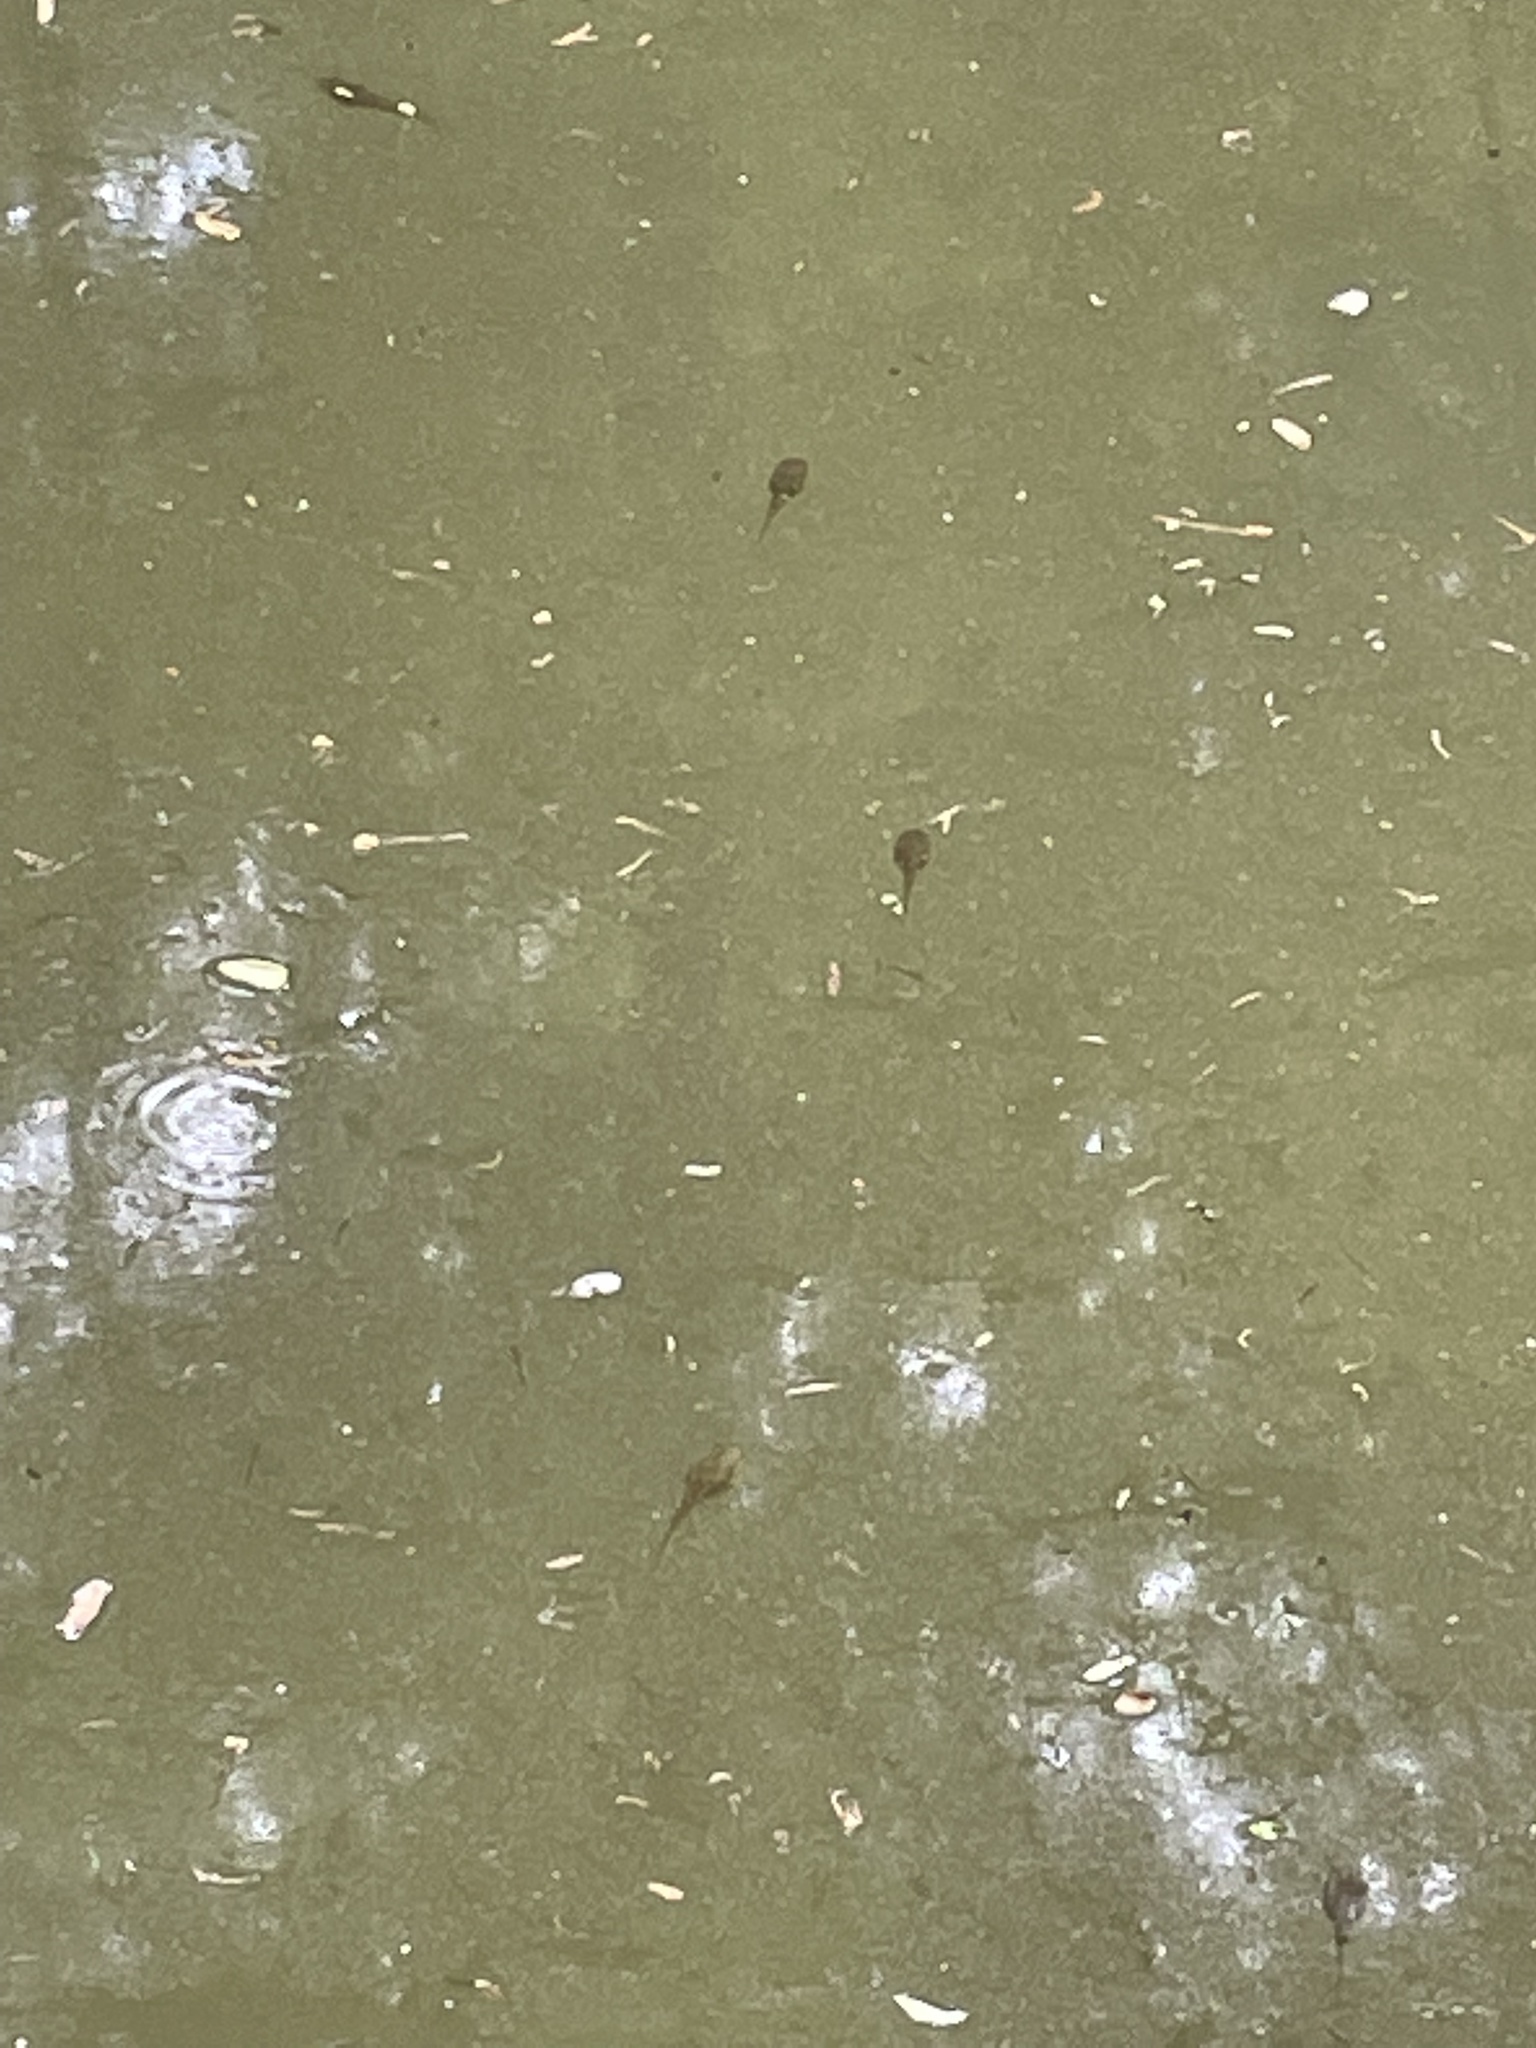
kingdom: Animalia
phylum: Chordata
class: Amphibia
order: Anura
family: Ranidae
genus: Lithobates
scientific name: Lithobates catesbeianus
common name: American bullfrog
